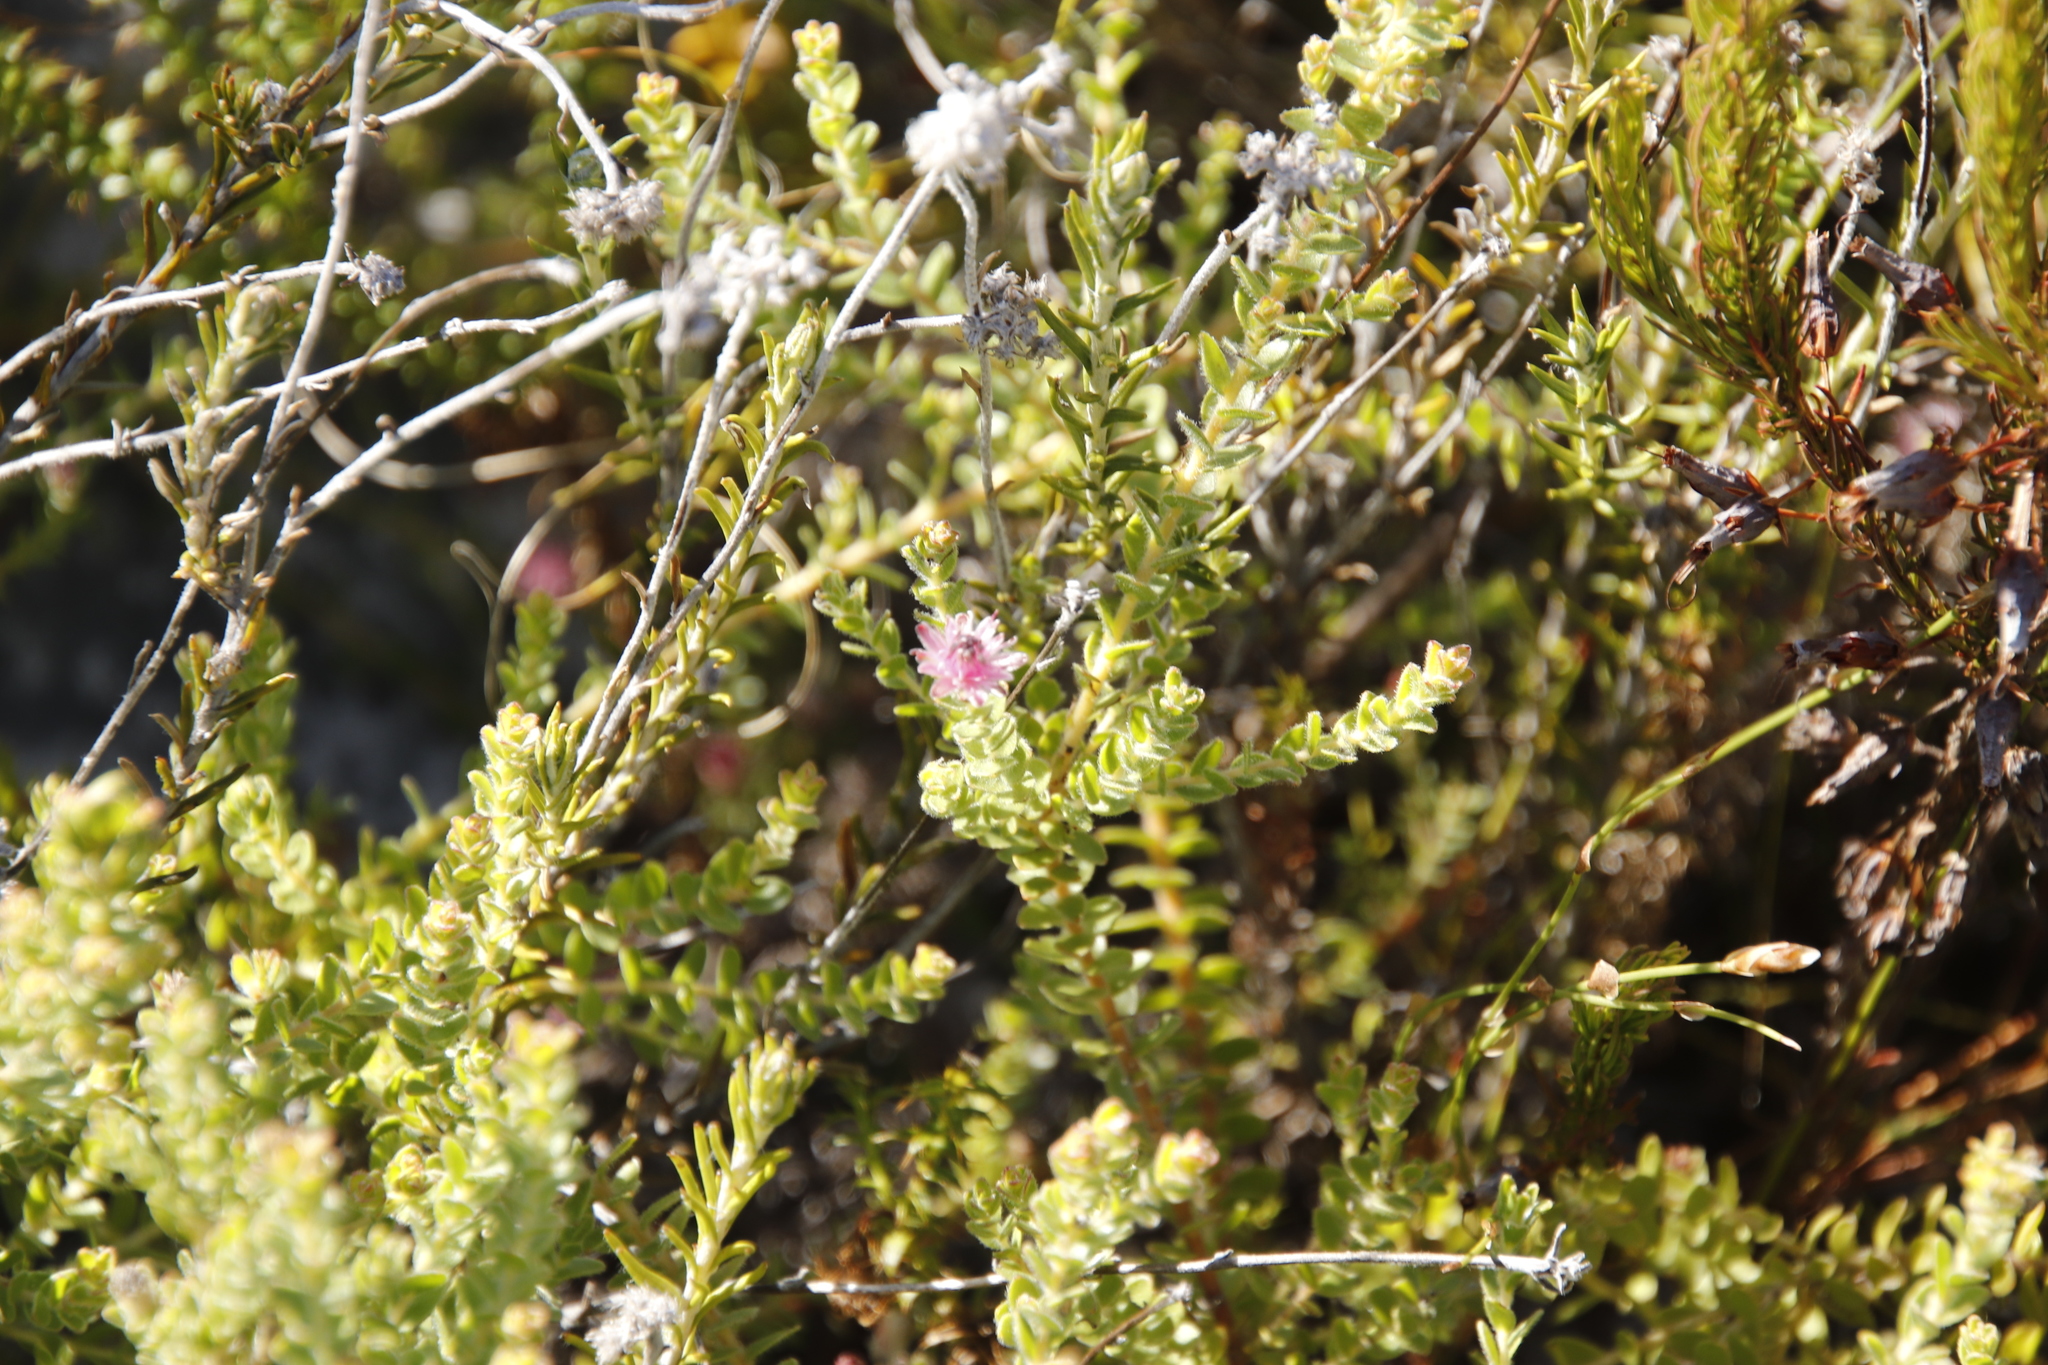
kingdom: Plantae
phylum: Tracheophyta
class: Magnoliopsida
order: Proteales
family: Proteaceae
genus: Diastella
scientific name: Diastella divaricata
